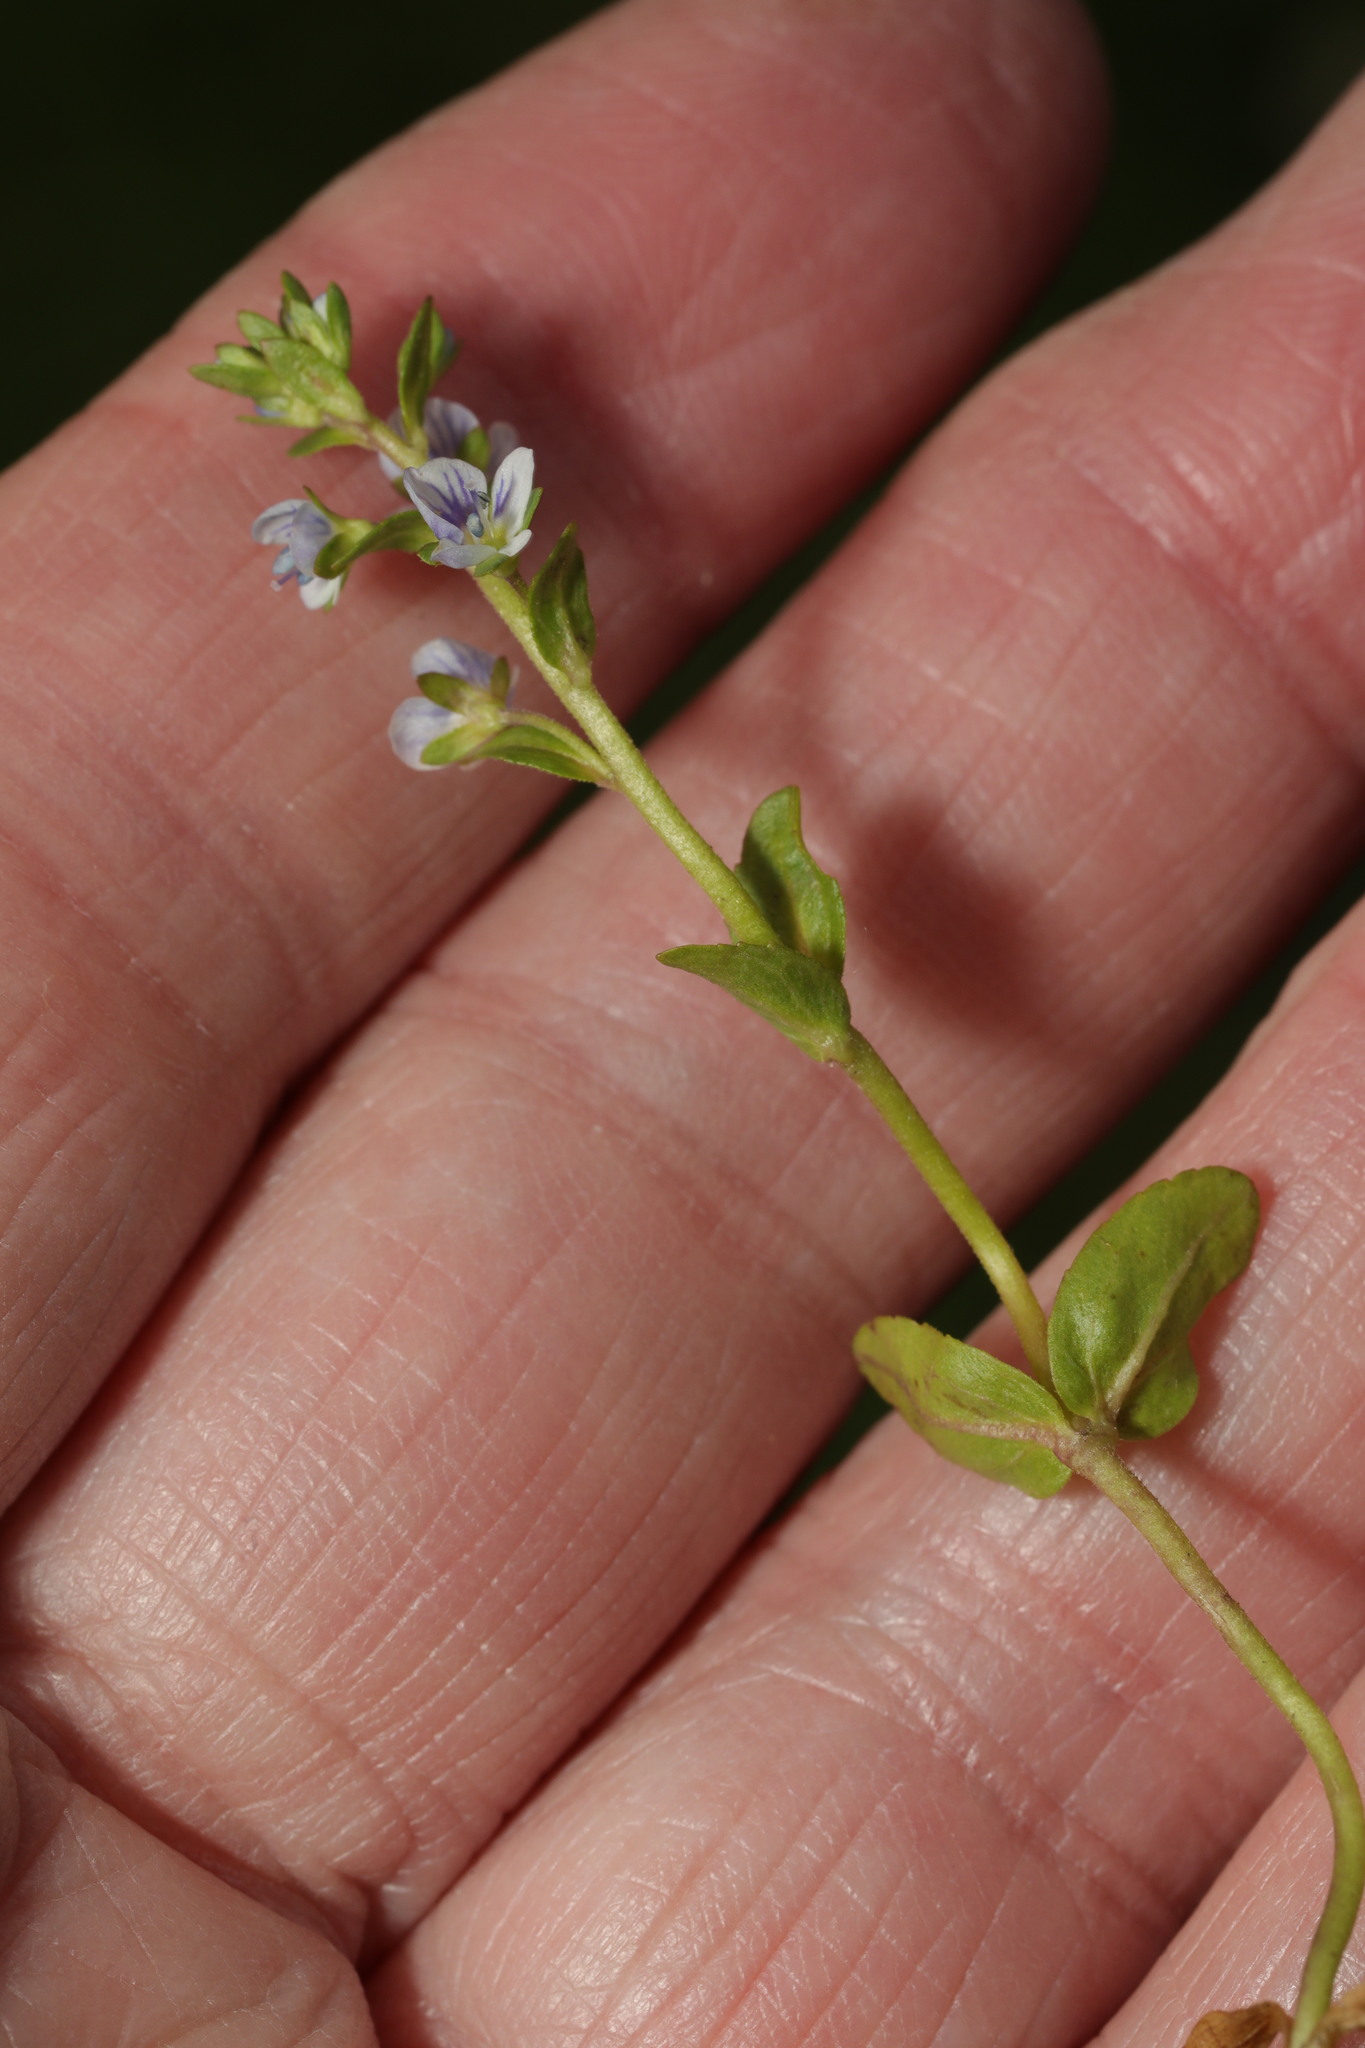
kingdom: Plantae
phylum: Tracheophyta
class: Magnoliopsida
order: Lamiales
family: Plantaginaceae
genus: Veronica
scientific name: Veronica serpyllifolia
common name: Thyme-leaved speedwell
